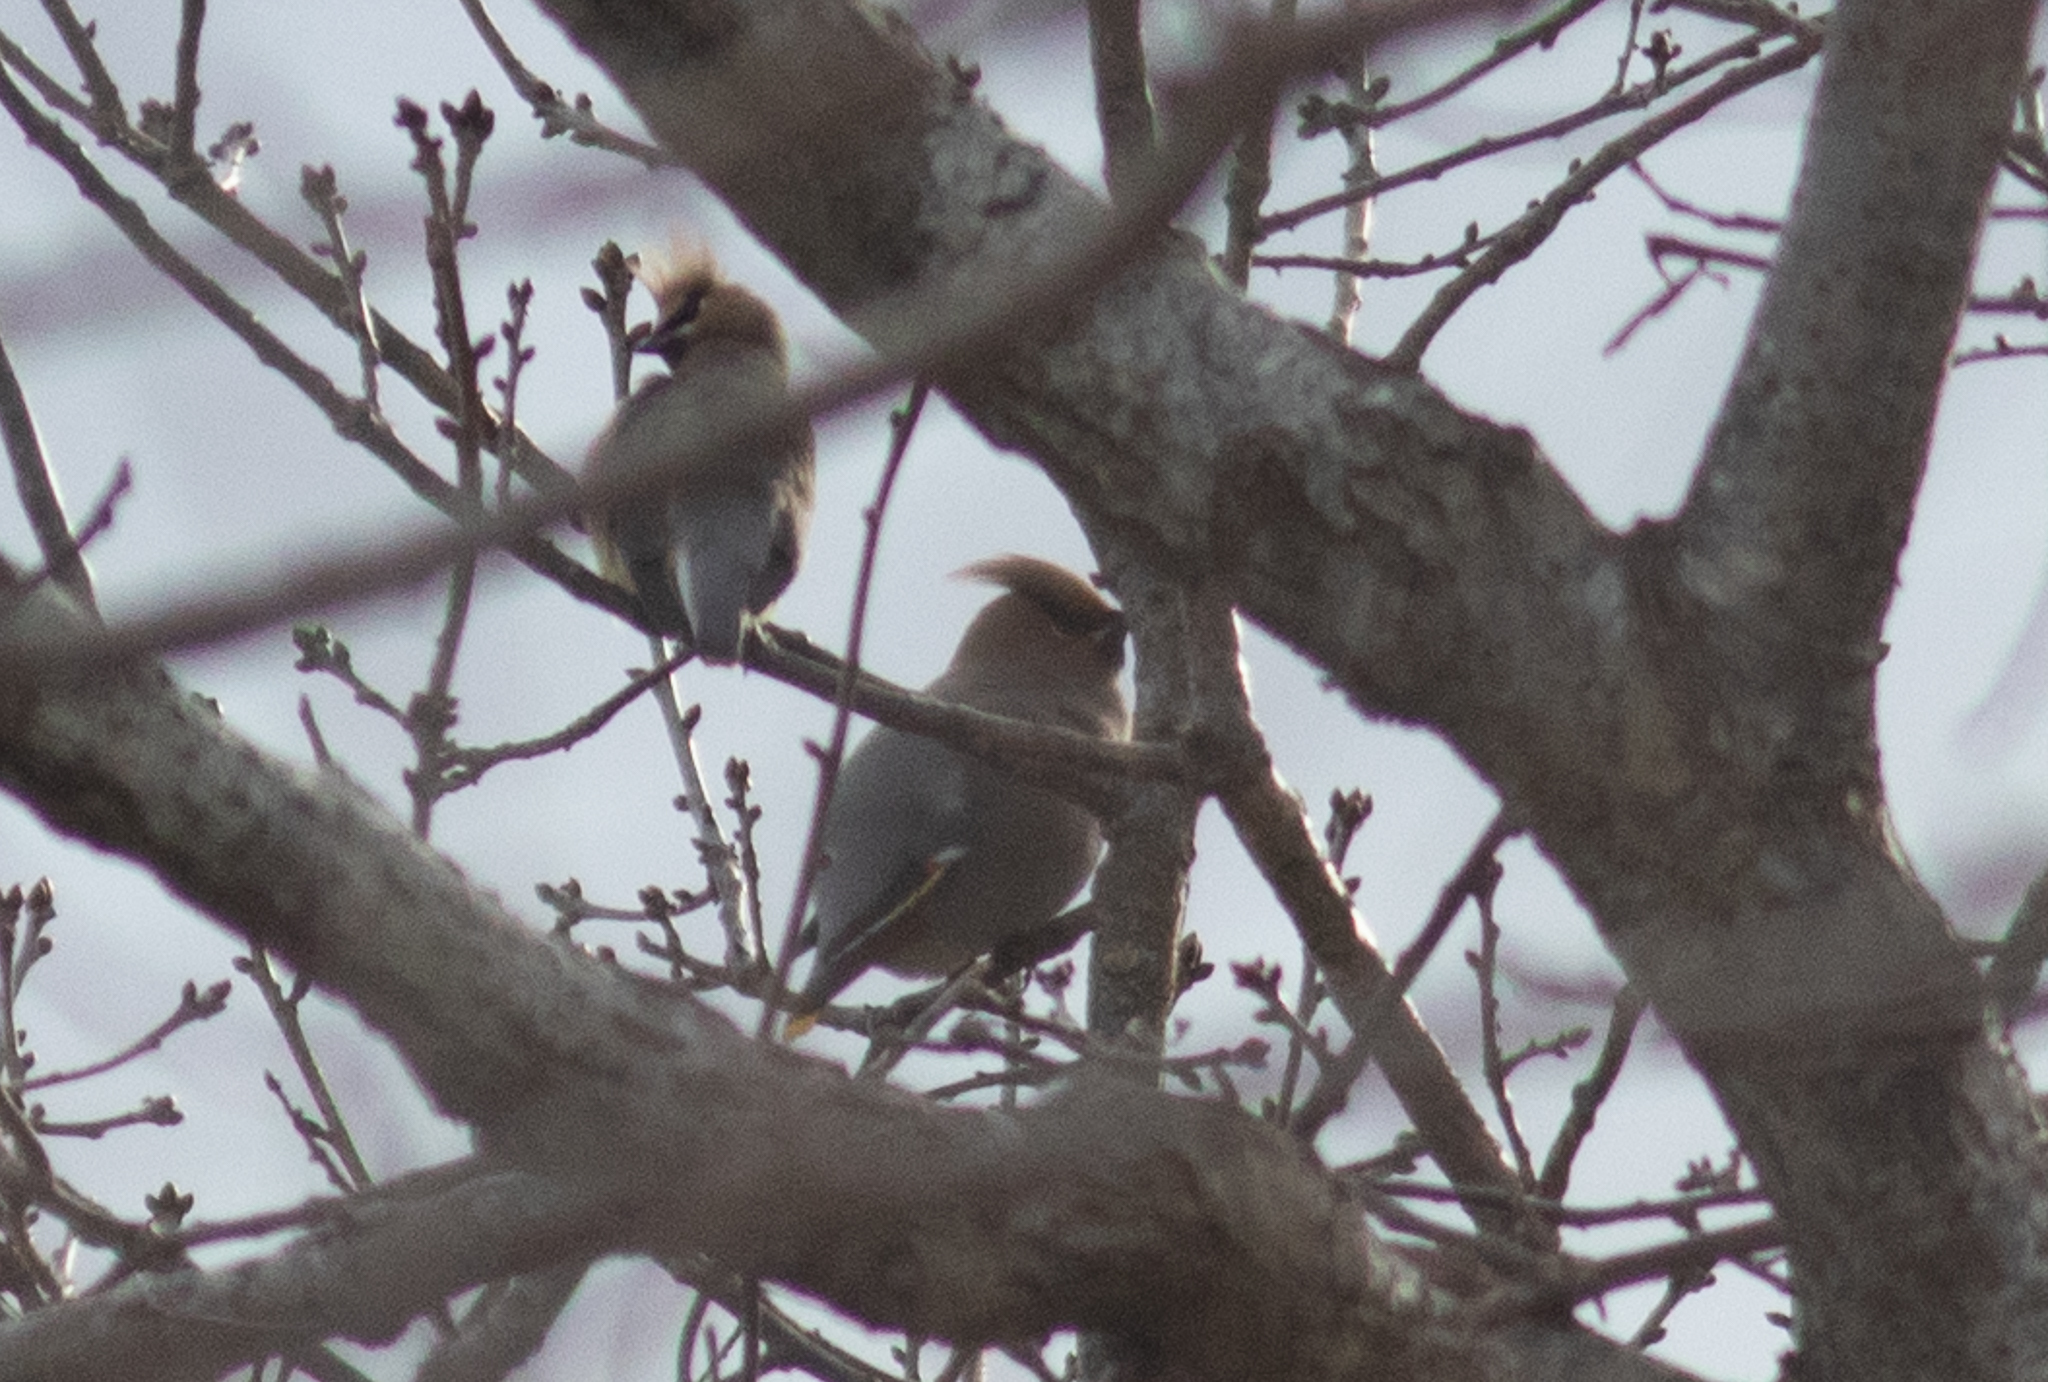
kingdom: Animalia
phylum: Chordata
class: Aves
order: Passeriformes
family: Bombycillidae
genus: Bombycilla
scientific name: Bombycilla garrulus
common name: Bohemian waxwing
